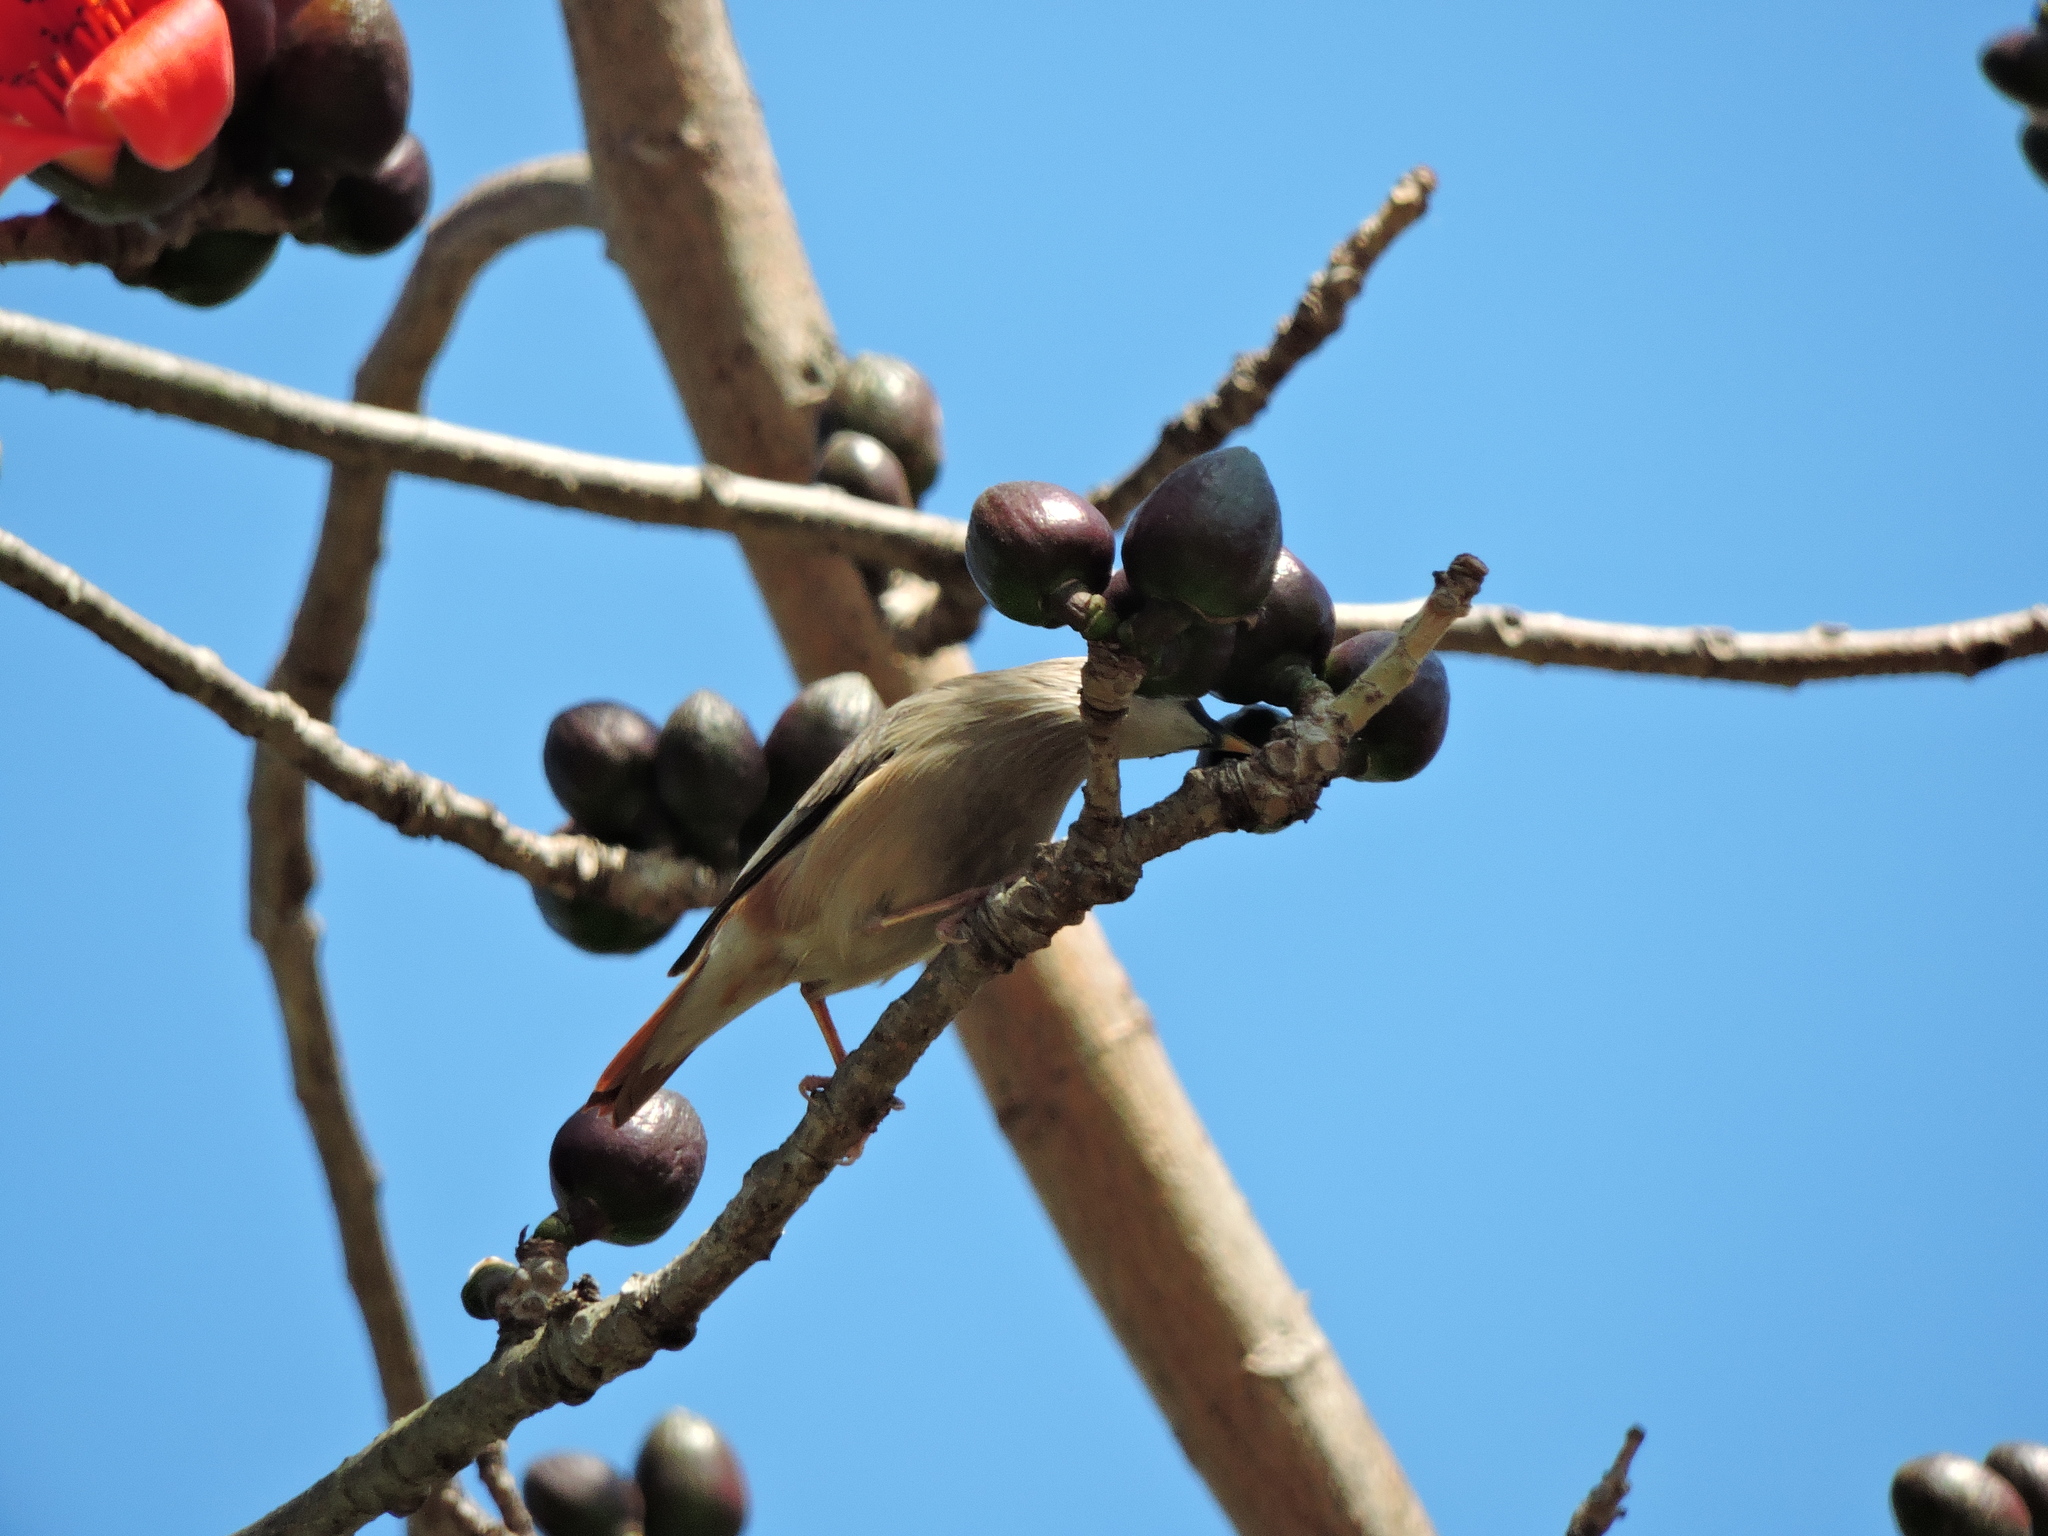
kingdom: Animalia
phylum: Chordata
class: Aves
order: Passeriformes
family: Sturnidae
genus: Sturnia
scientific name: Sturnia malabarica
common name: Chestnut-tailed starling
